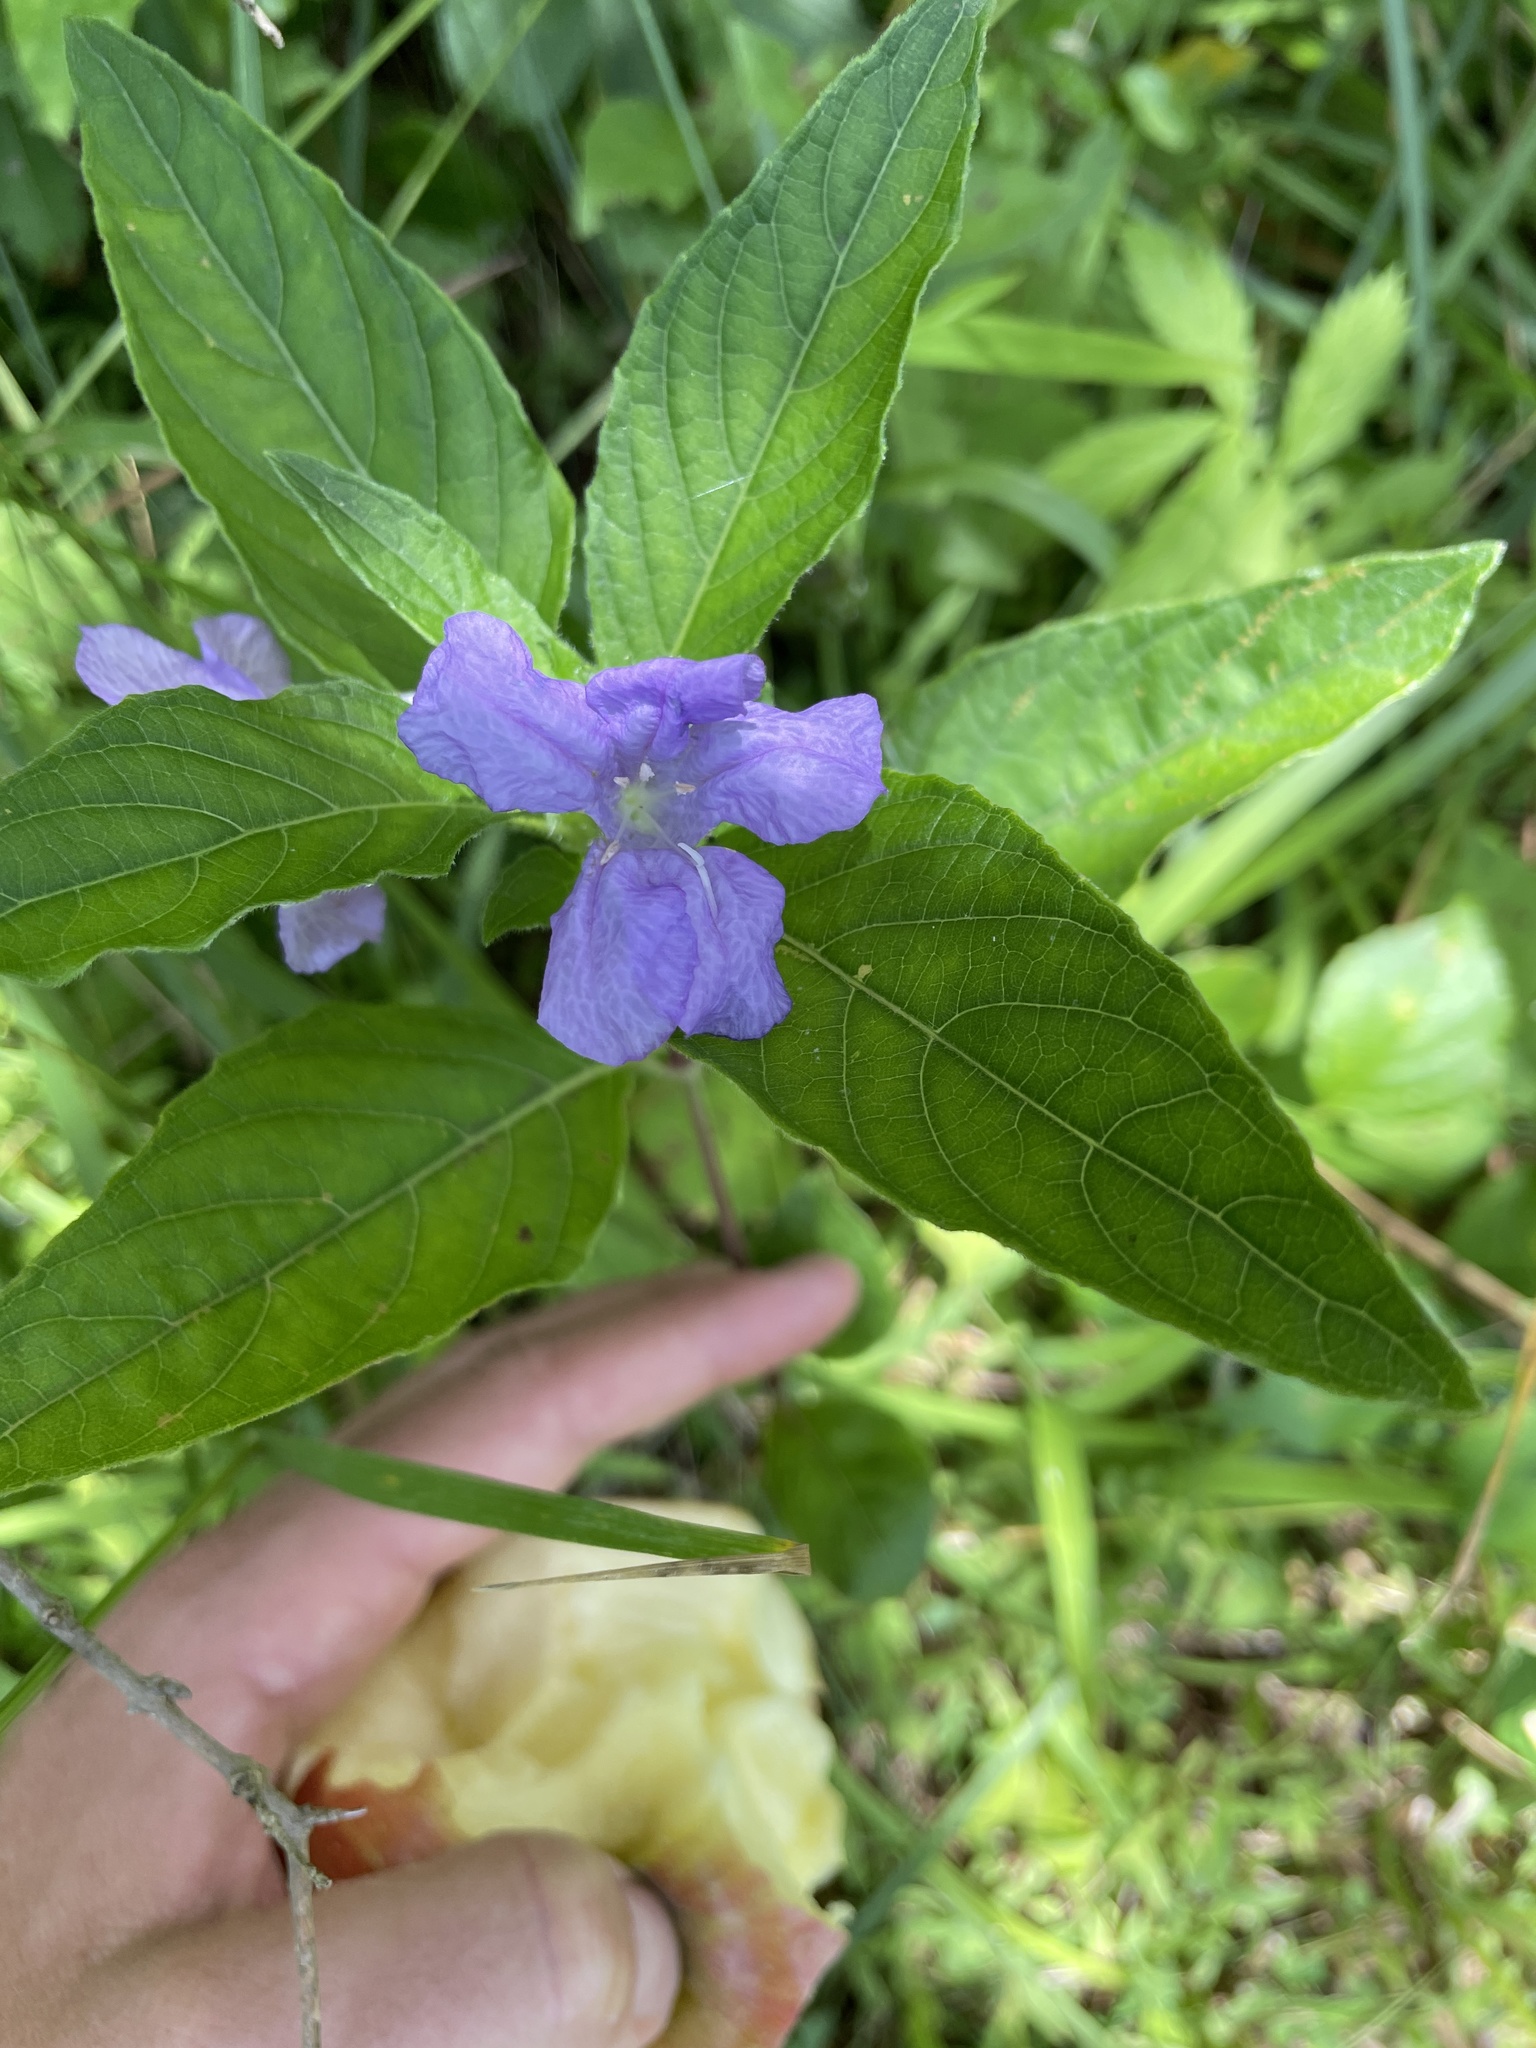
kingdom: Plantae
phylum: Tracheophyta
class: Magnoliopsida
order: Lamiales
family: Acanthaceae
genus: Ruellia
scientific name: Ruellia caroliniensis
